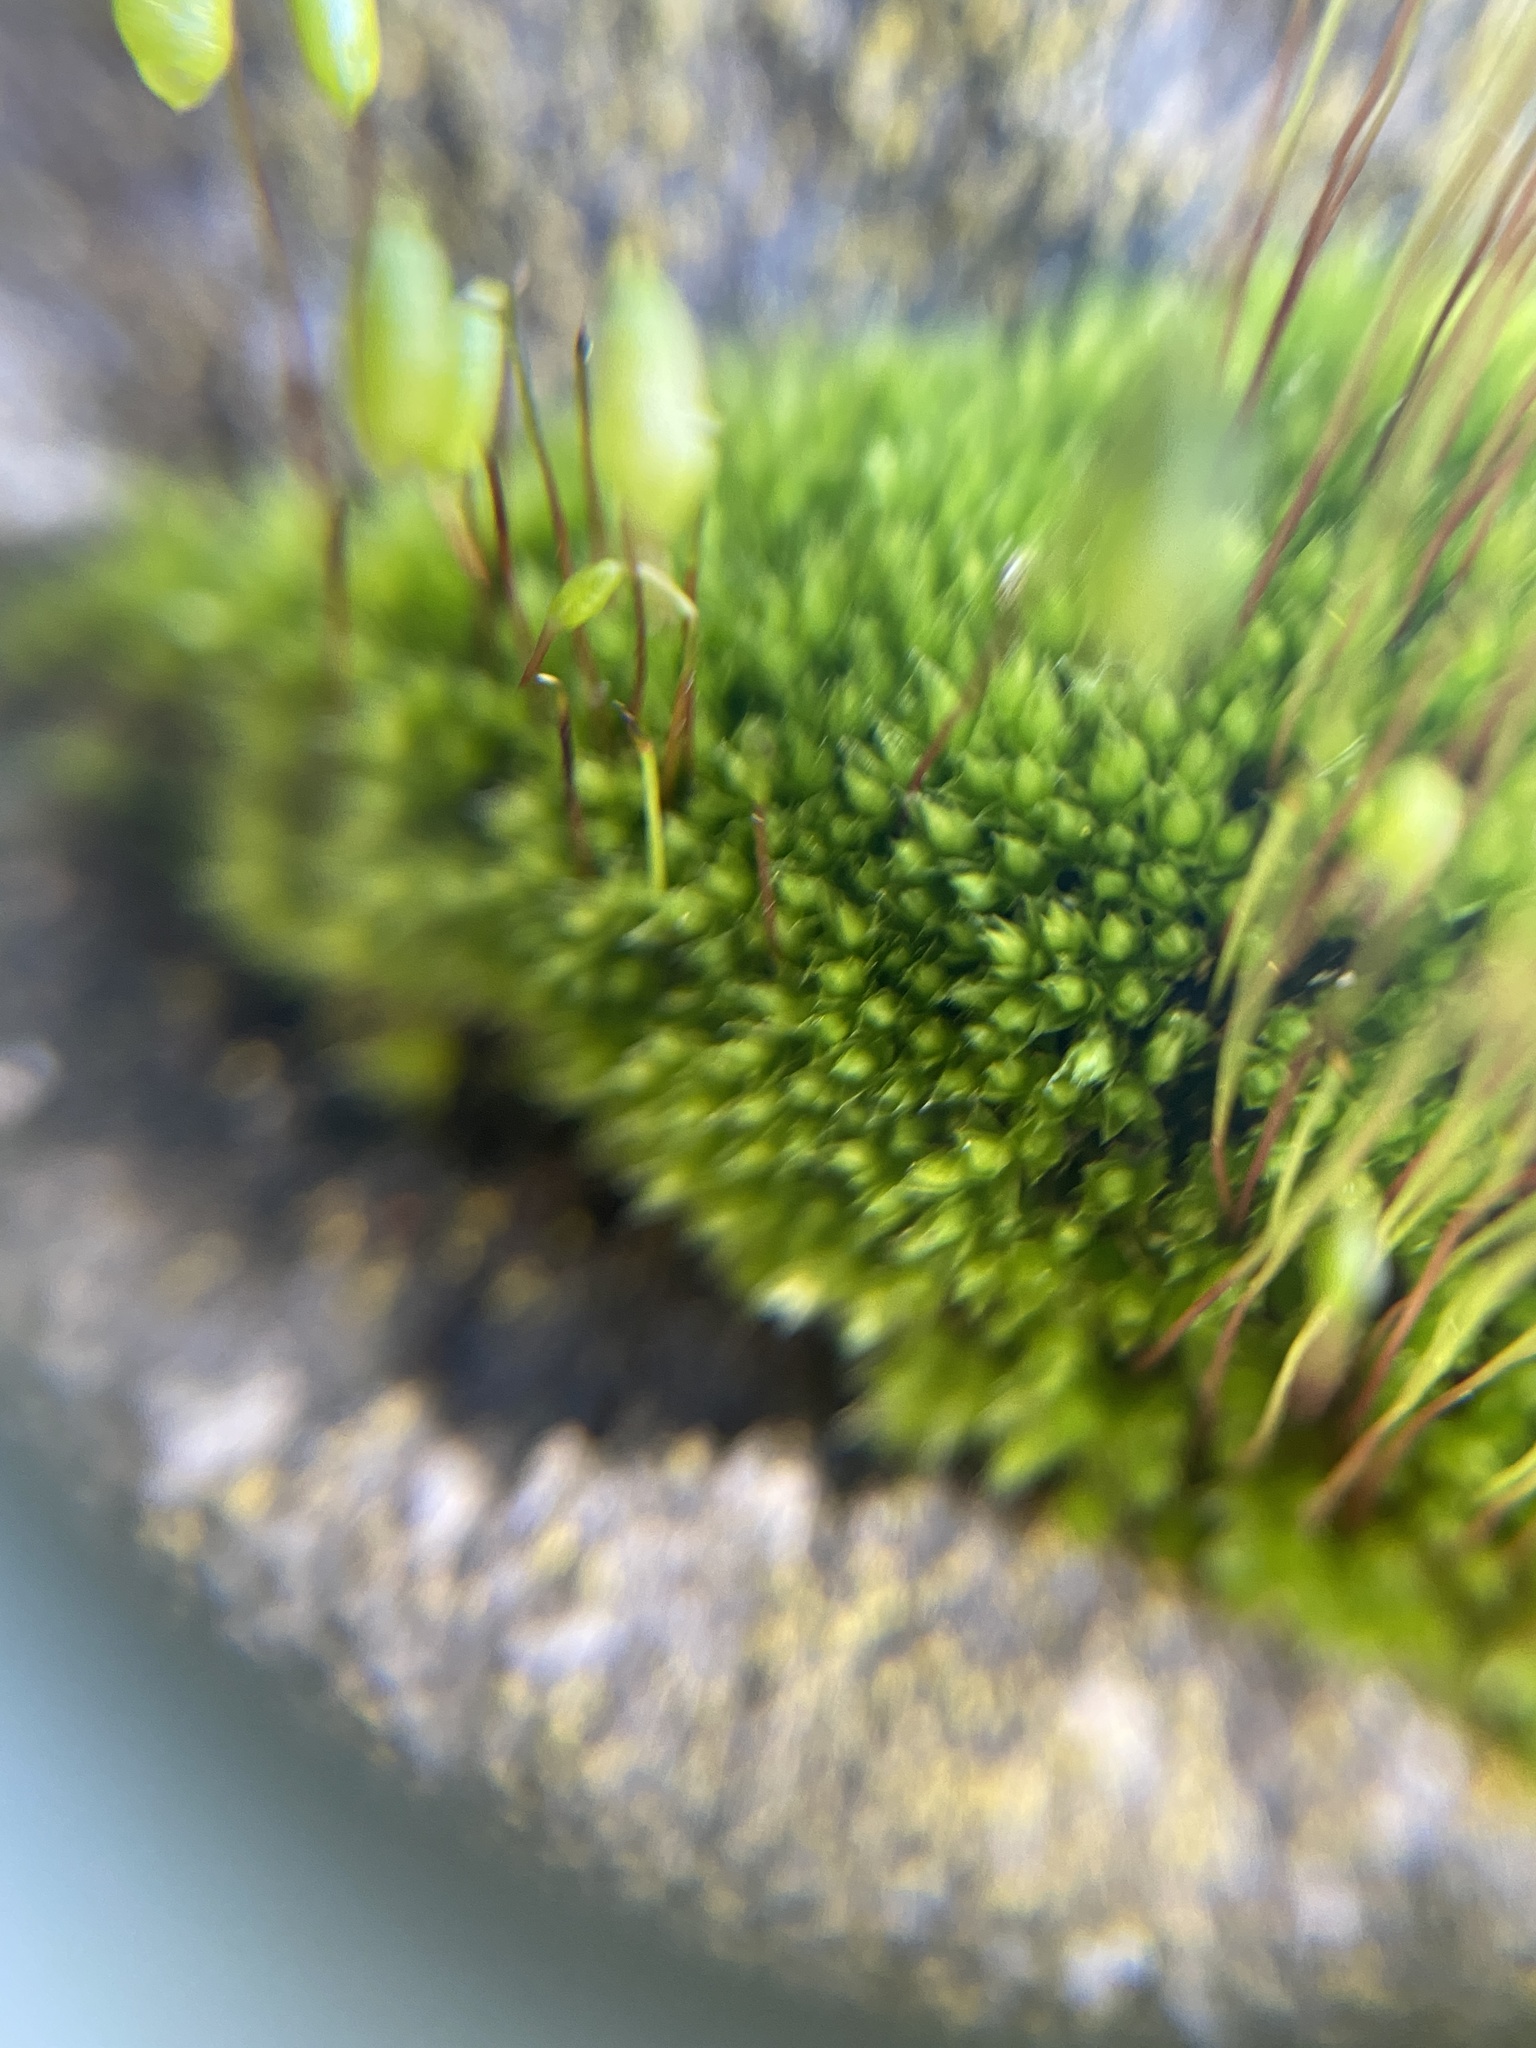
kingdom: Plantae
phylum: Bryophyta
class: Bryopsida
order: Bryales
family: Bryaceae
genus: Rosulabryum
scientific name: Rosulabryum capillare
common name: Capillary thread-moss
